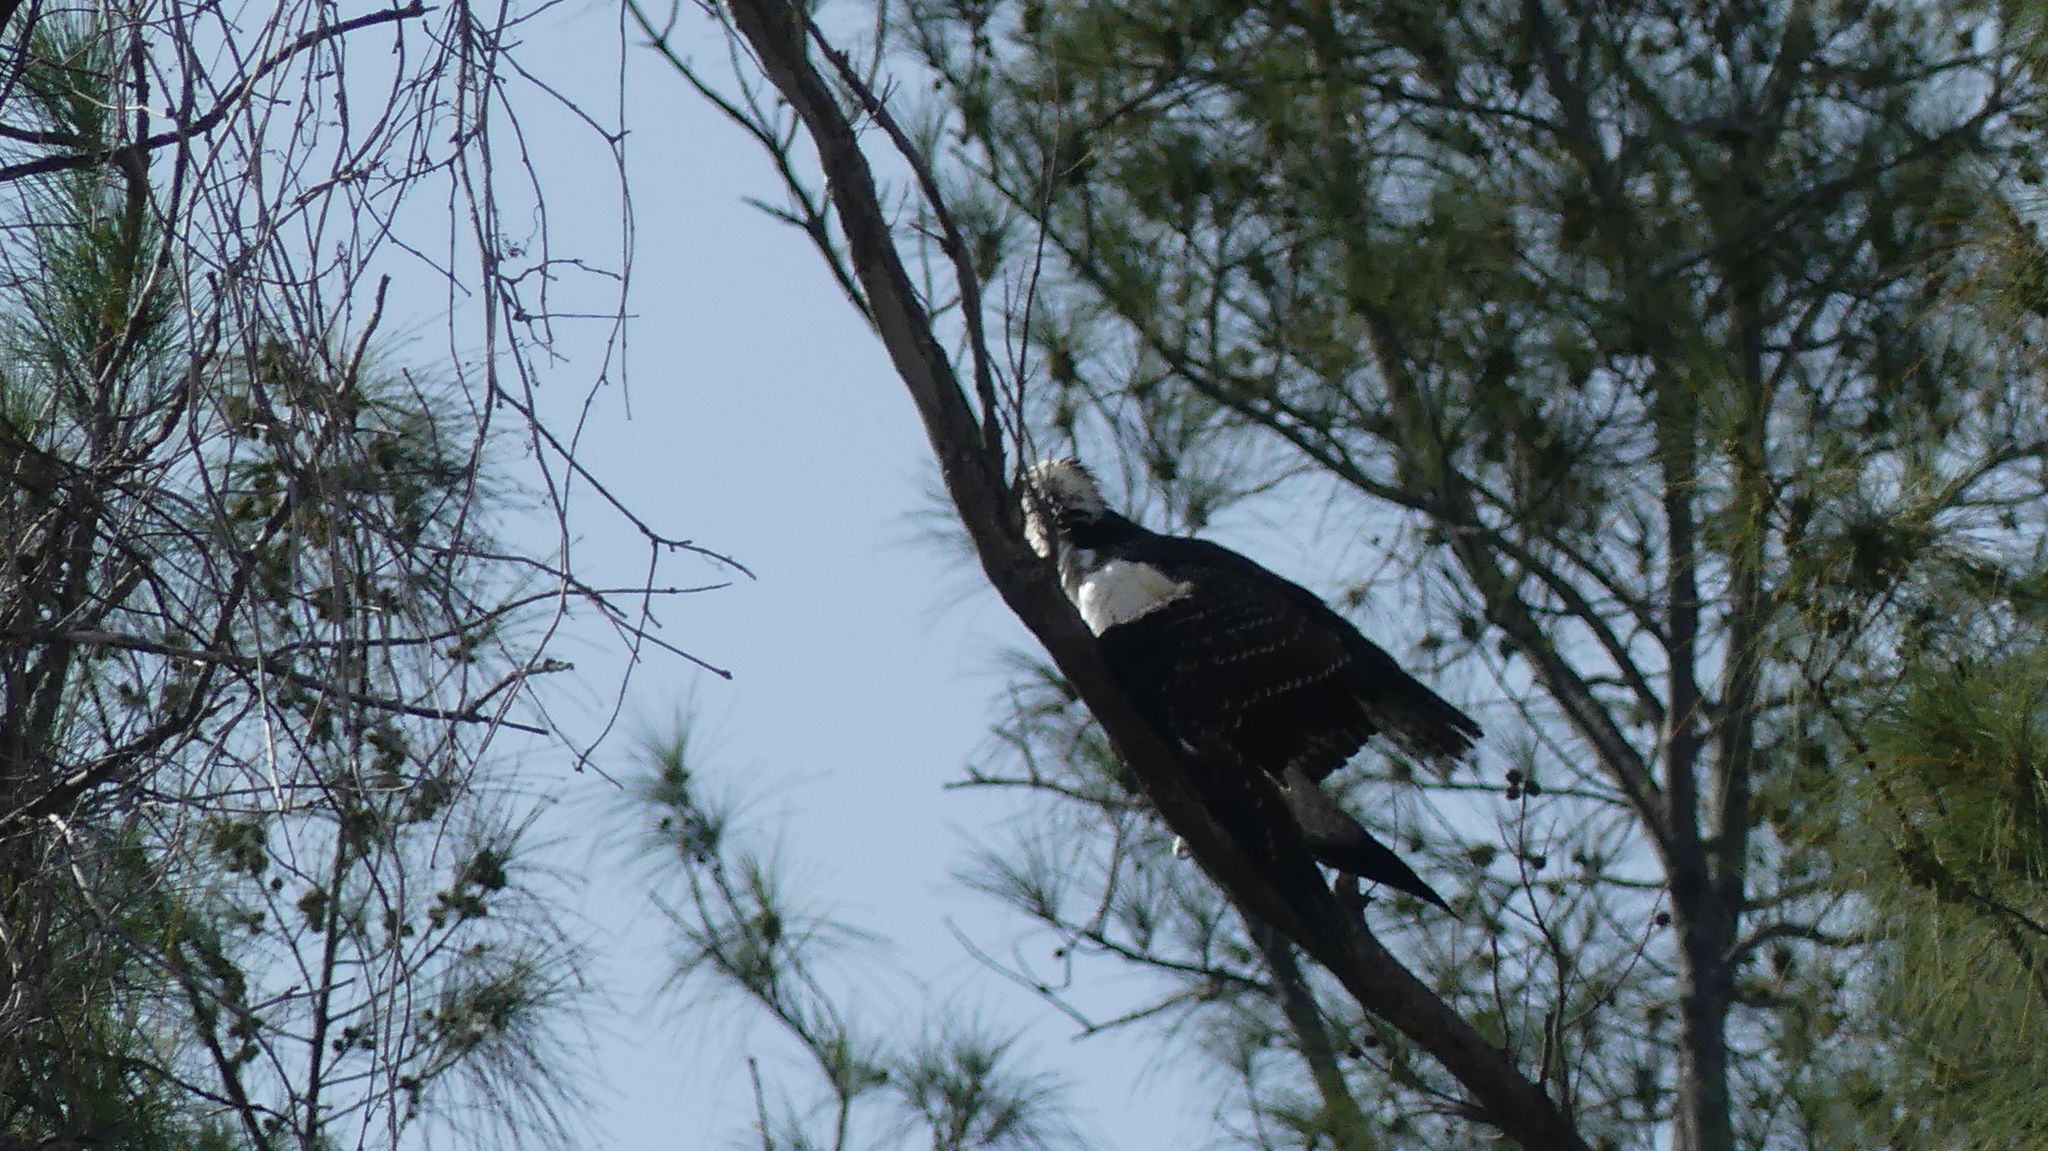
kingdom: Animalia
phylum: Chordata
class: Aves
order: Accipitriformes
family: Pandionidae
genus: Pandion
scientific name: Pandion haliaetus
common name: Osprey
